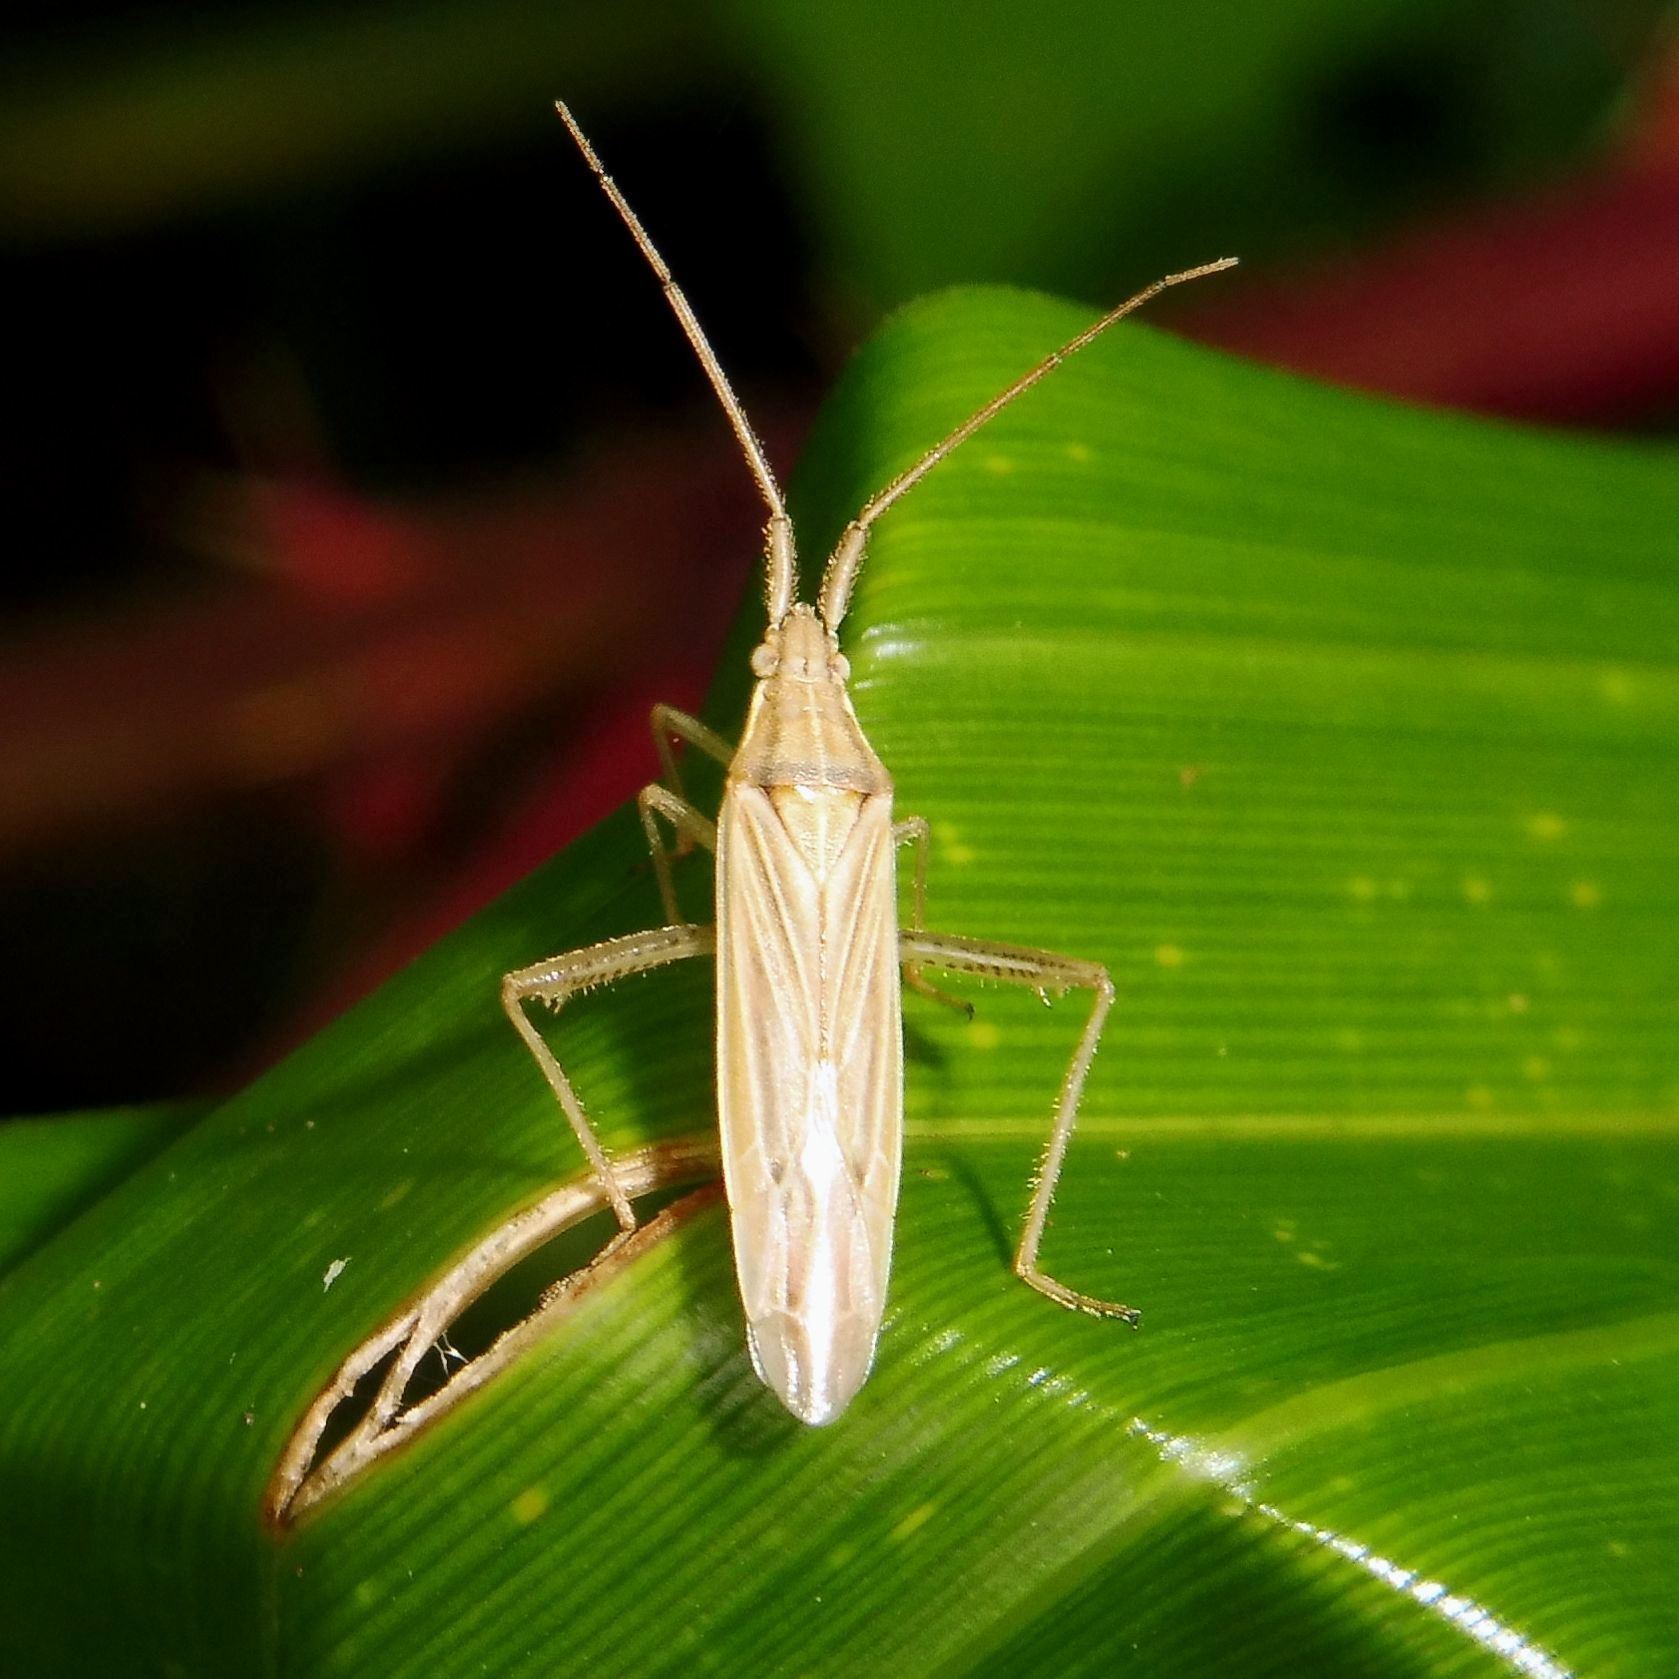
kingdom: Animalia
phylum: Arthropoda
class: Insecta
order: Hemiptera
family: Miridae
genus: Stenodema
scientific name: Stenodema calcarata
